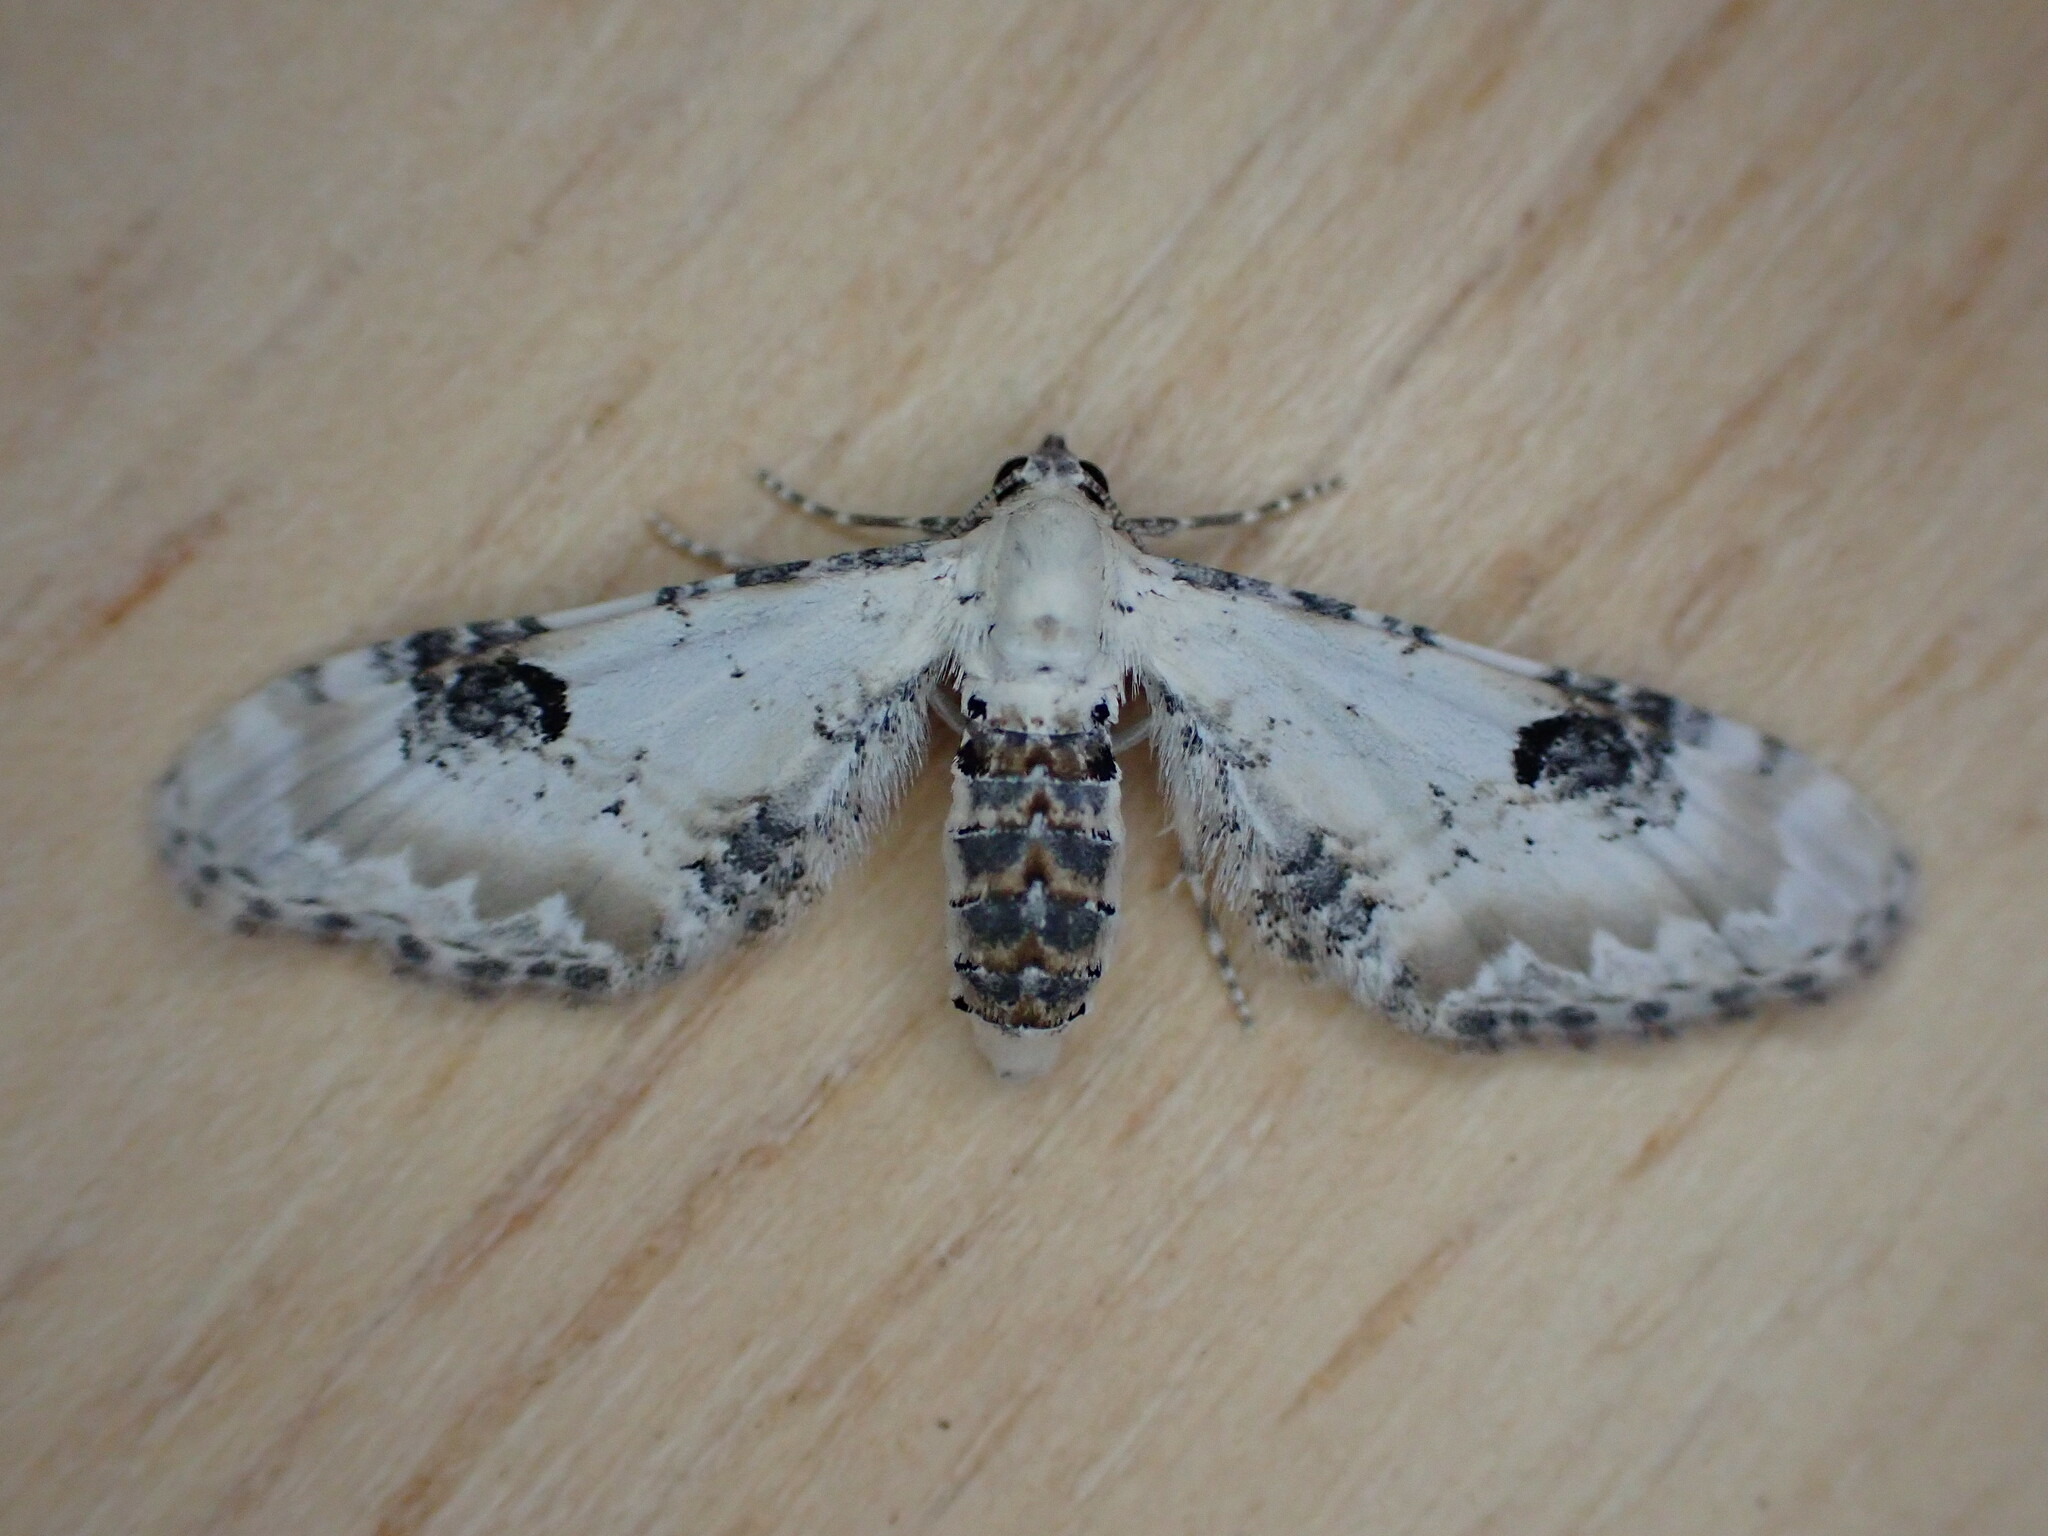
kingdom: Animalia
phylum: Arthropoda
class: Insecta
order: Lepidoptera
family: Geometridae
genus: Eupithecia
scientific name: Eupithecia centaureata
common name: Lime-speck pug
